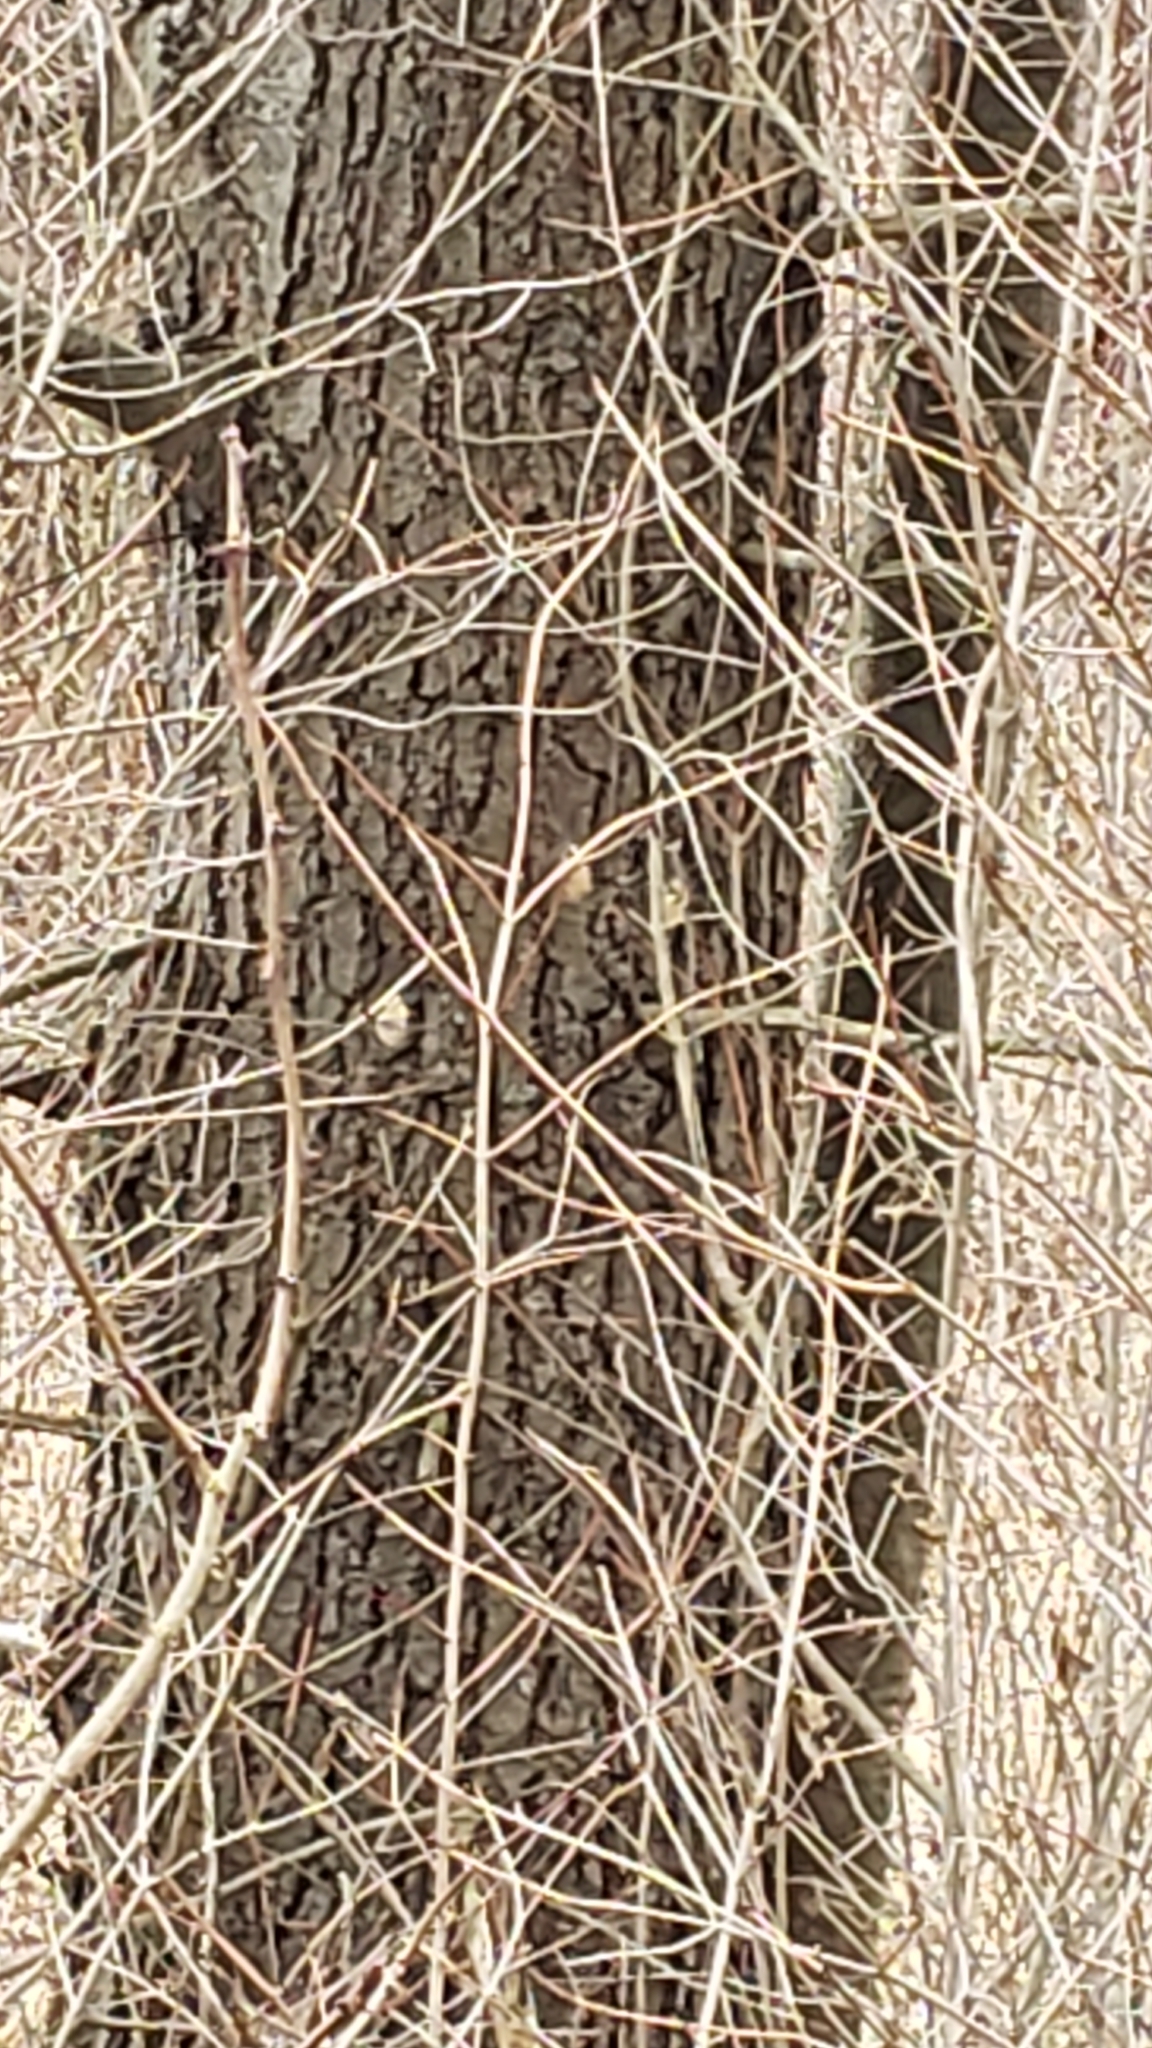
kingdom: Animalia
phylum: Arthropoda
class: Insecta
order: Lepidoptera
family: Erebidae
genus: Lymantria
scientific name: Lymantria dispar
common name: Gypsy moth
